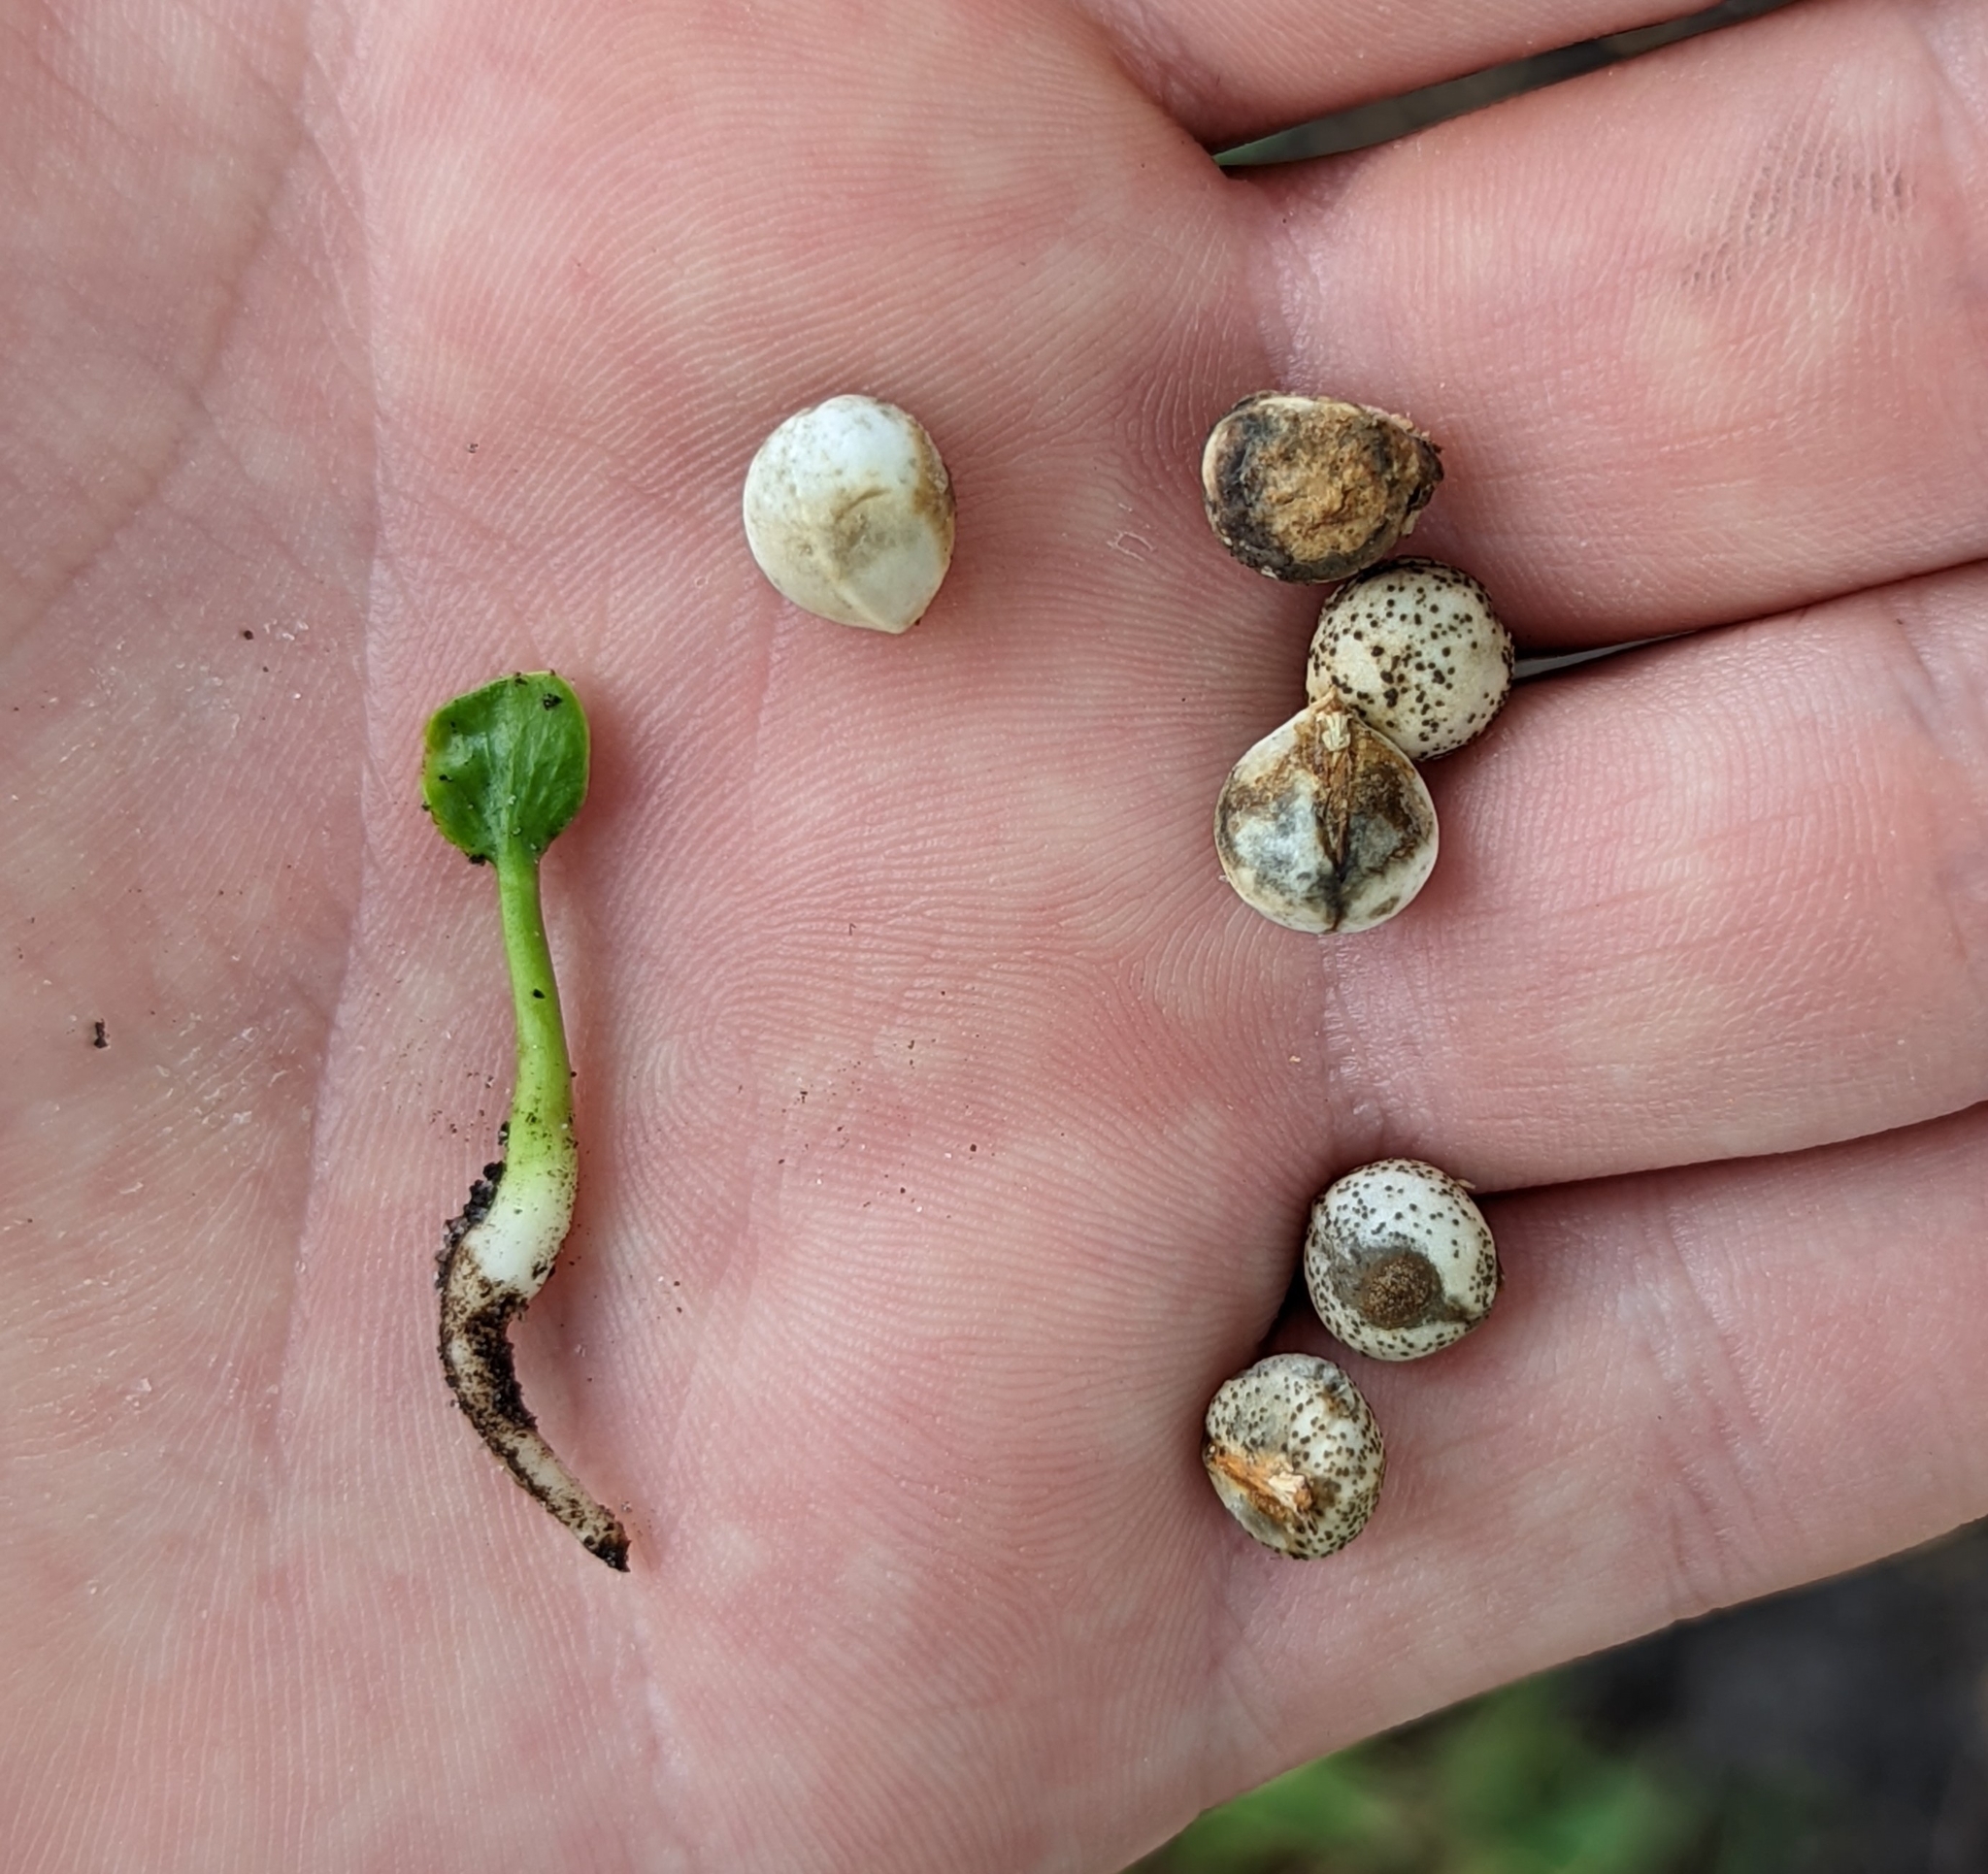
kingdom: Plantae
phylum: Tracheophyta
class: Magnoliopsida
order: Malpighiales
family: Euphorbiaceae
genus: Triadica
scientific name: Triadica sebifera
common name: Chinese tallow
